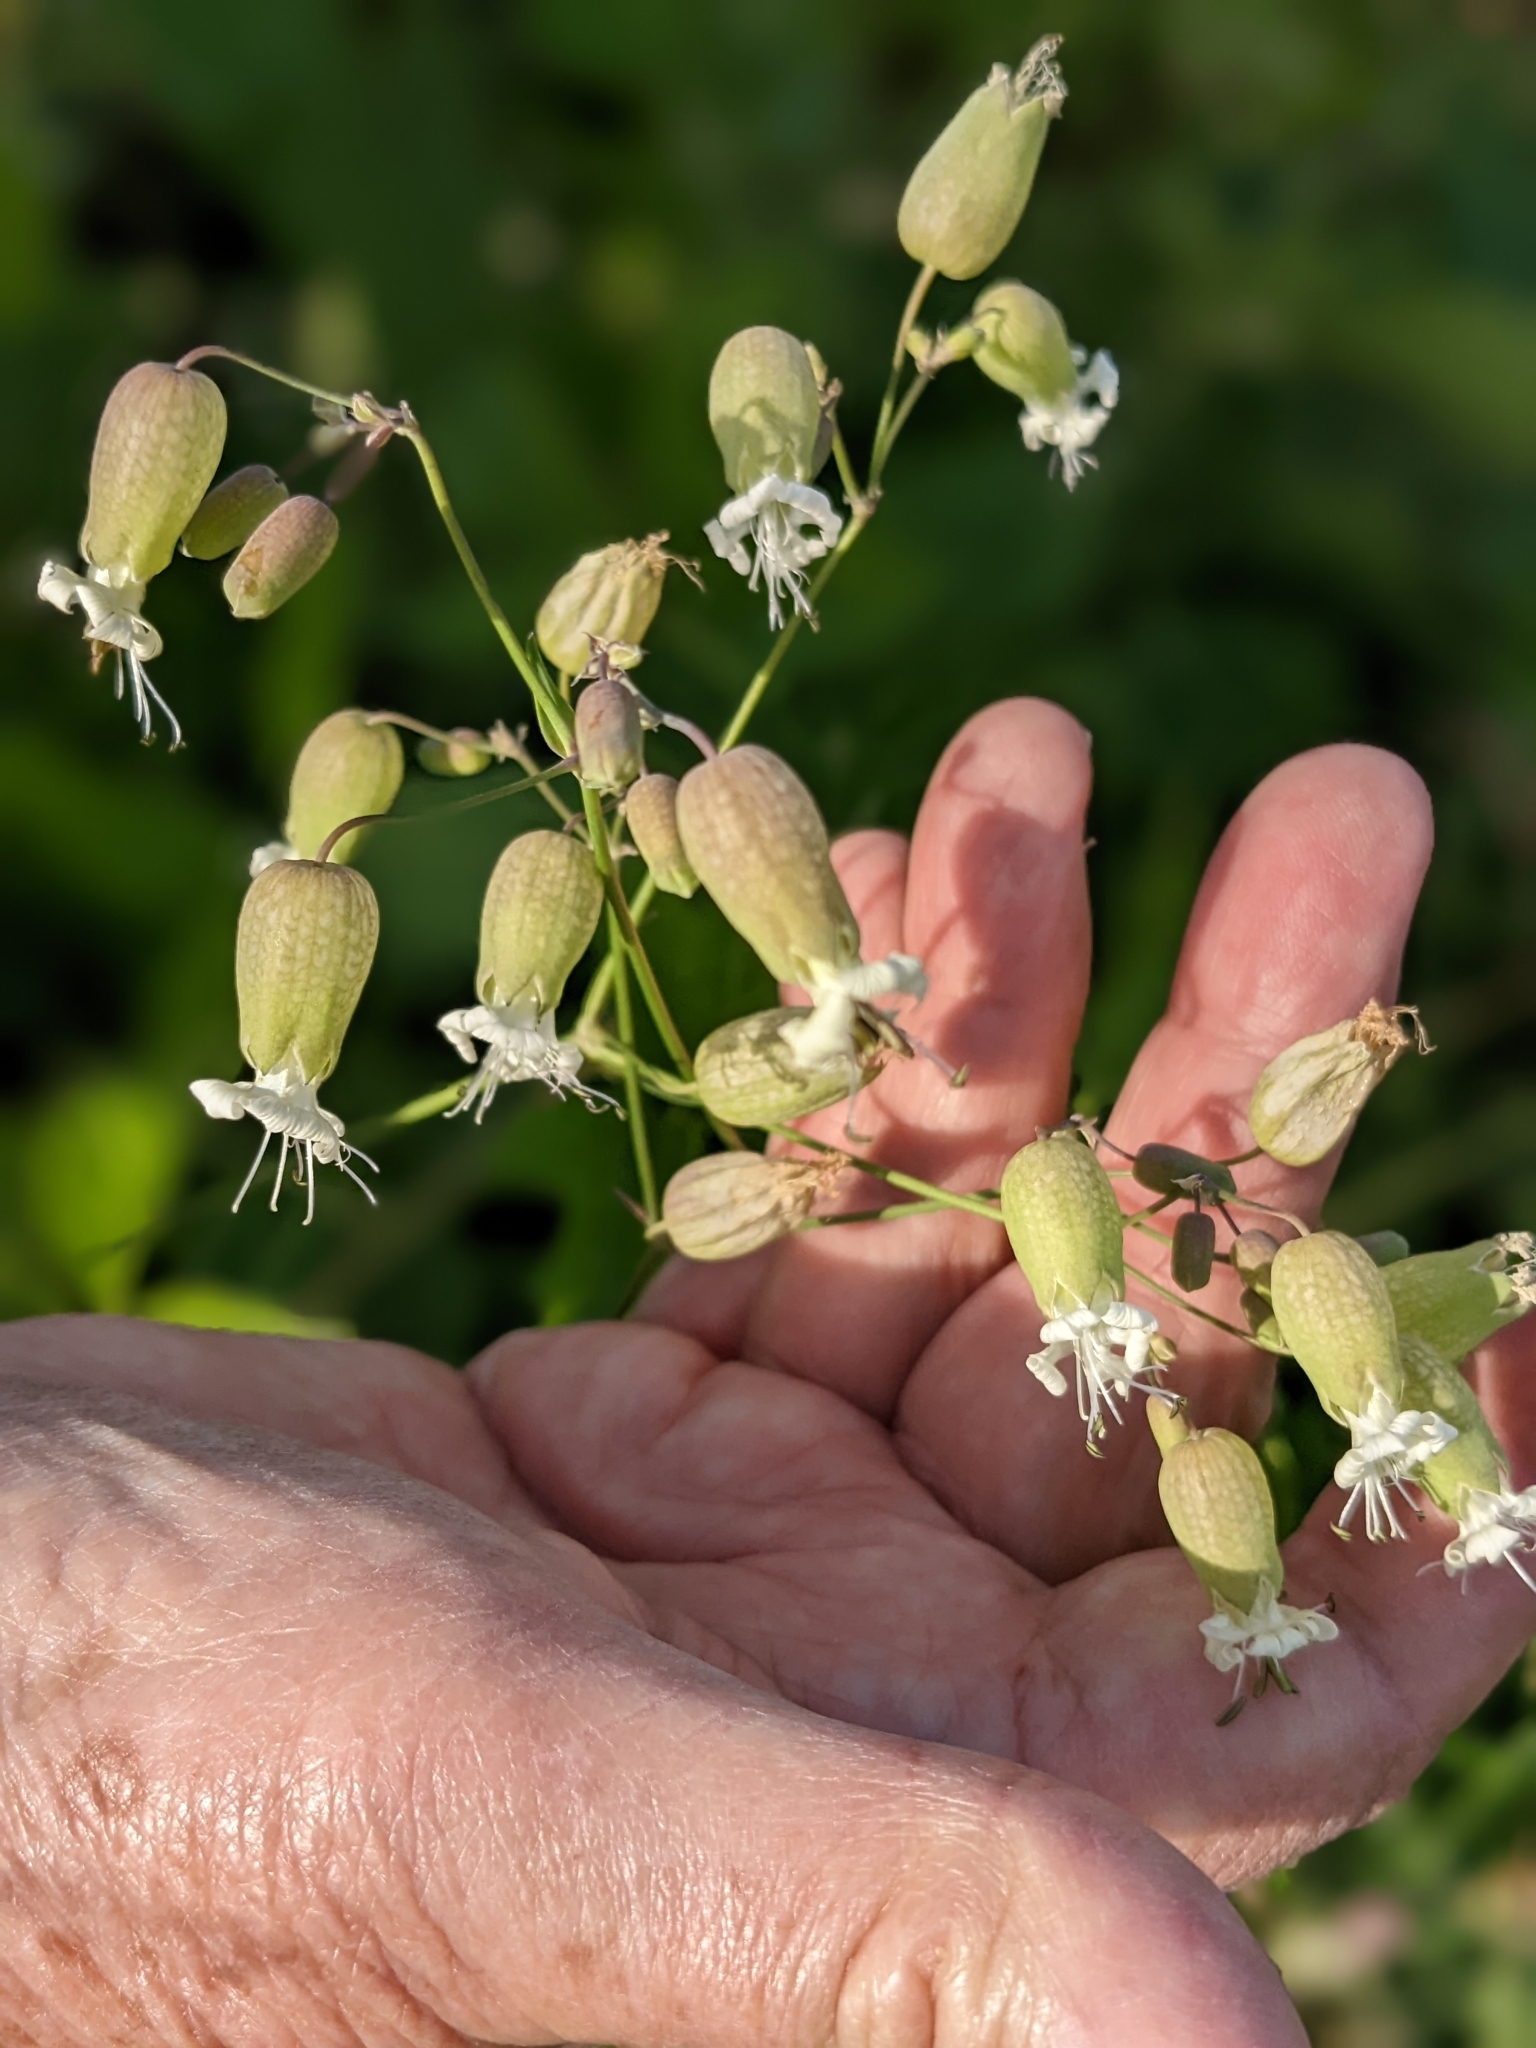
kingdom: Plantae
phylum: Tracheophyta
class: Magnoliopsida
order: Caryophyllales
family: Caryophyllaceae
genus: Silene
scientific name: Silene vulgaris
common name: Bladder campion
